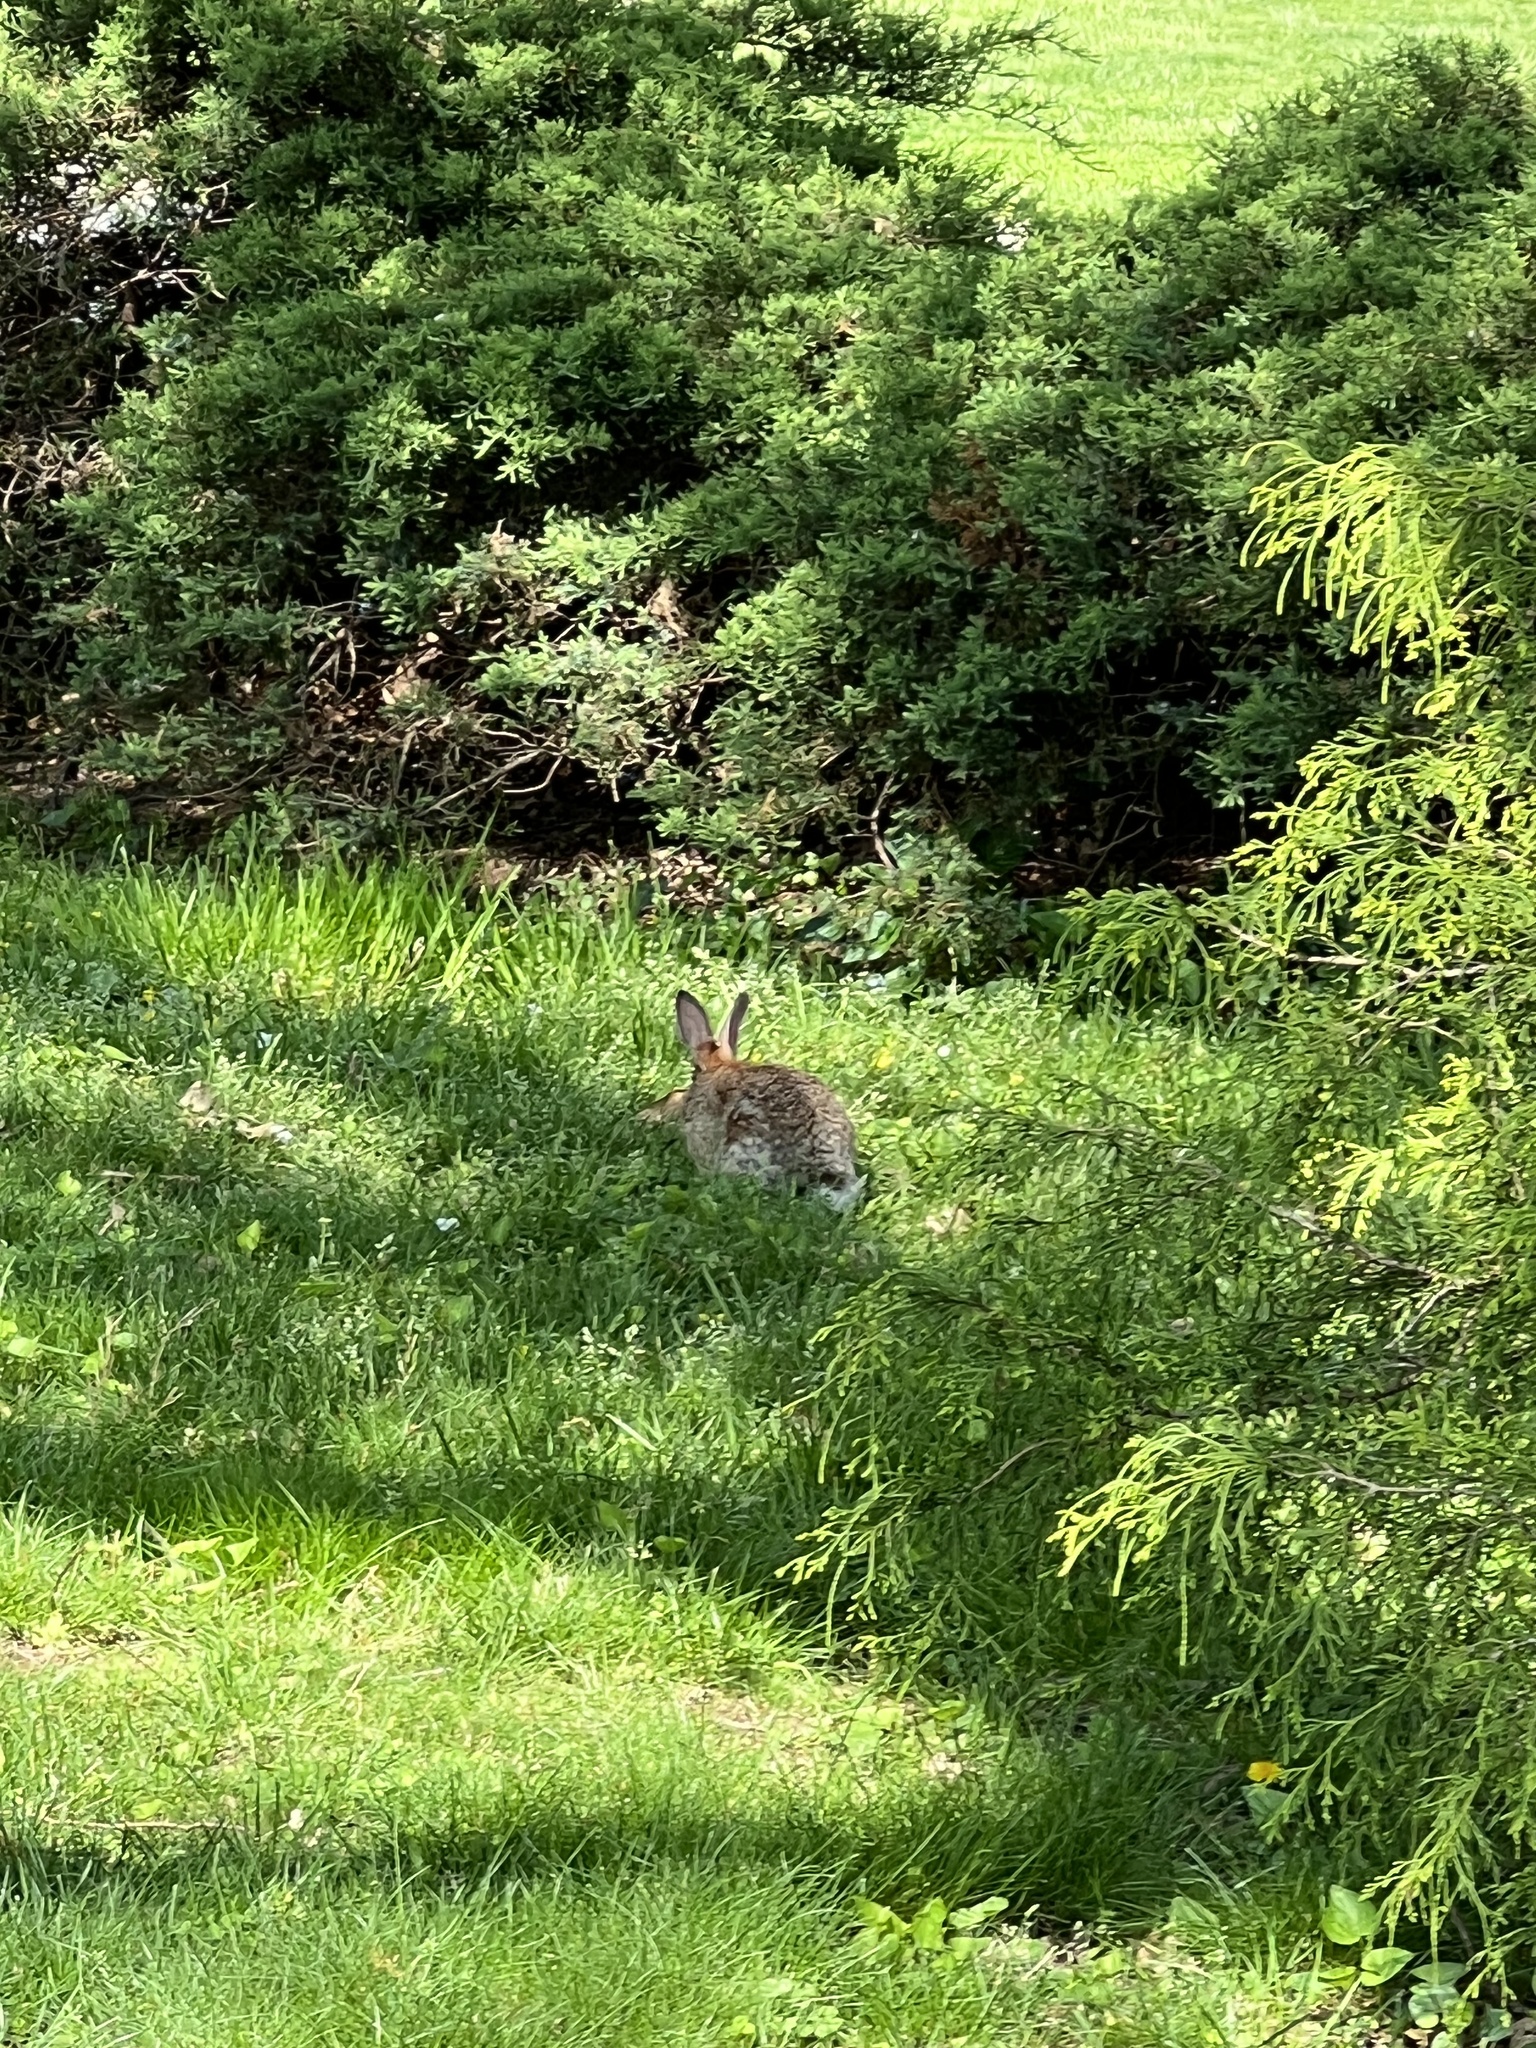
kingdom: Animalia
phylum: Chordata
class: Mammalia
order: Lagomorpha
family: Leporidae
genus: Sylvilagus
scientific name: Sylvilagus floridanus
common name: Eastern cottontail
